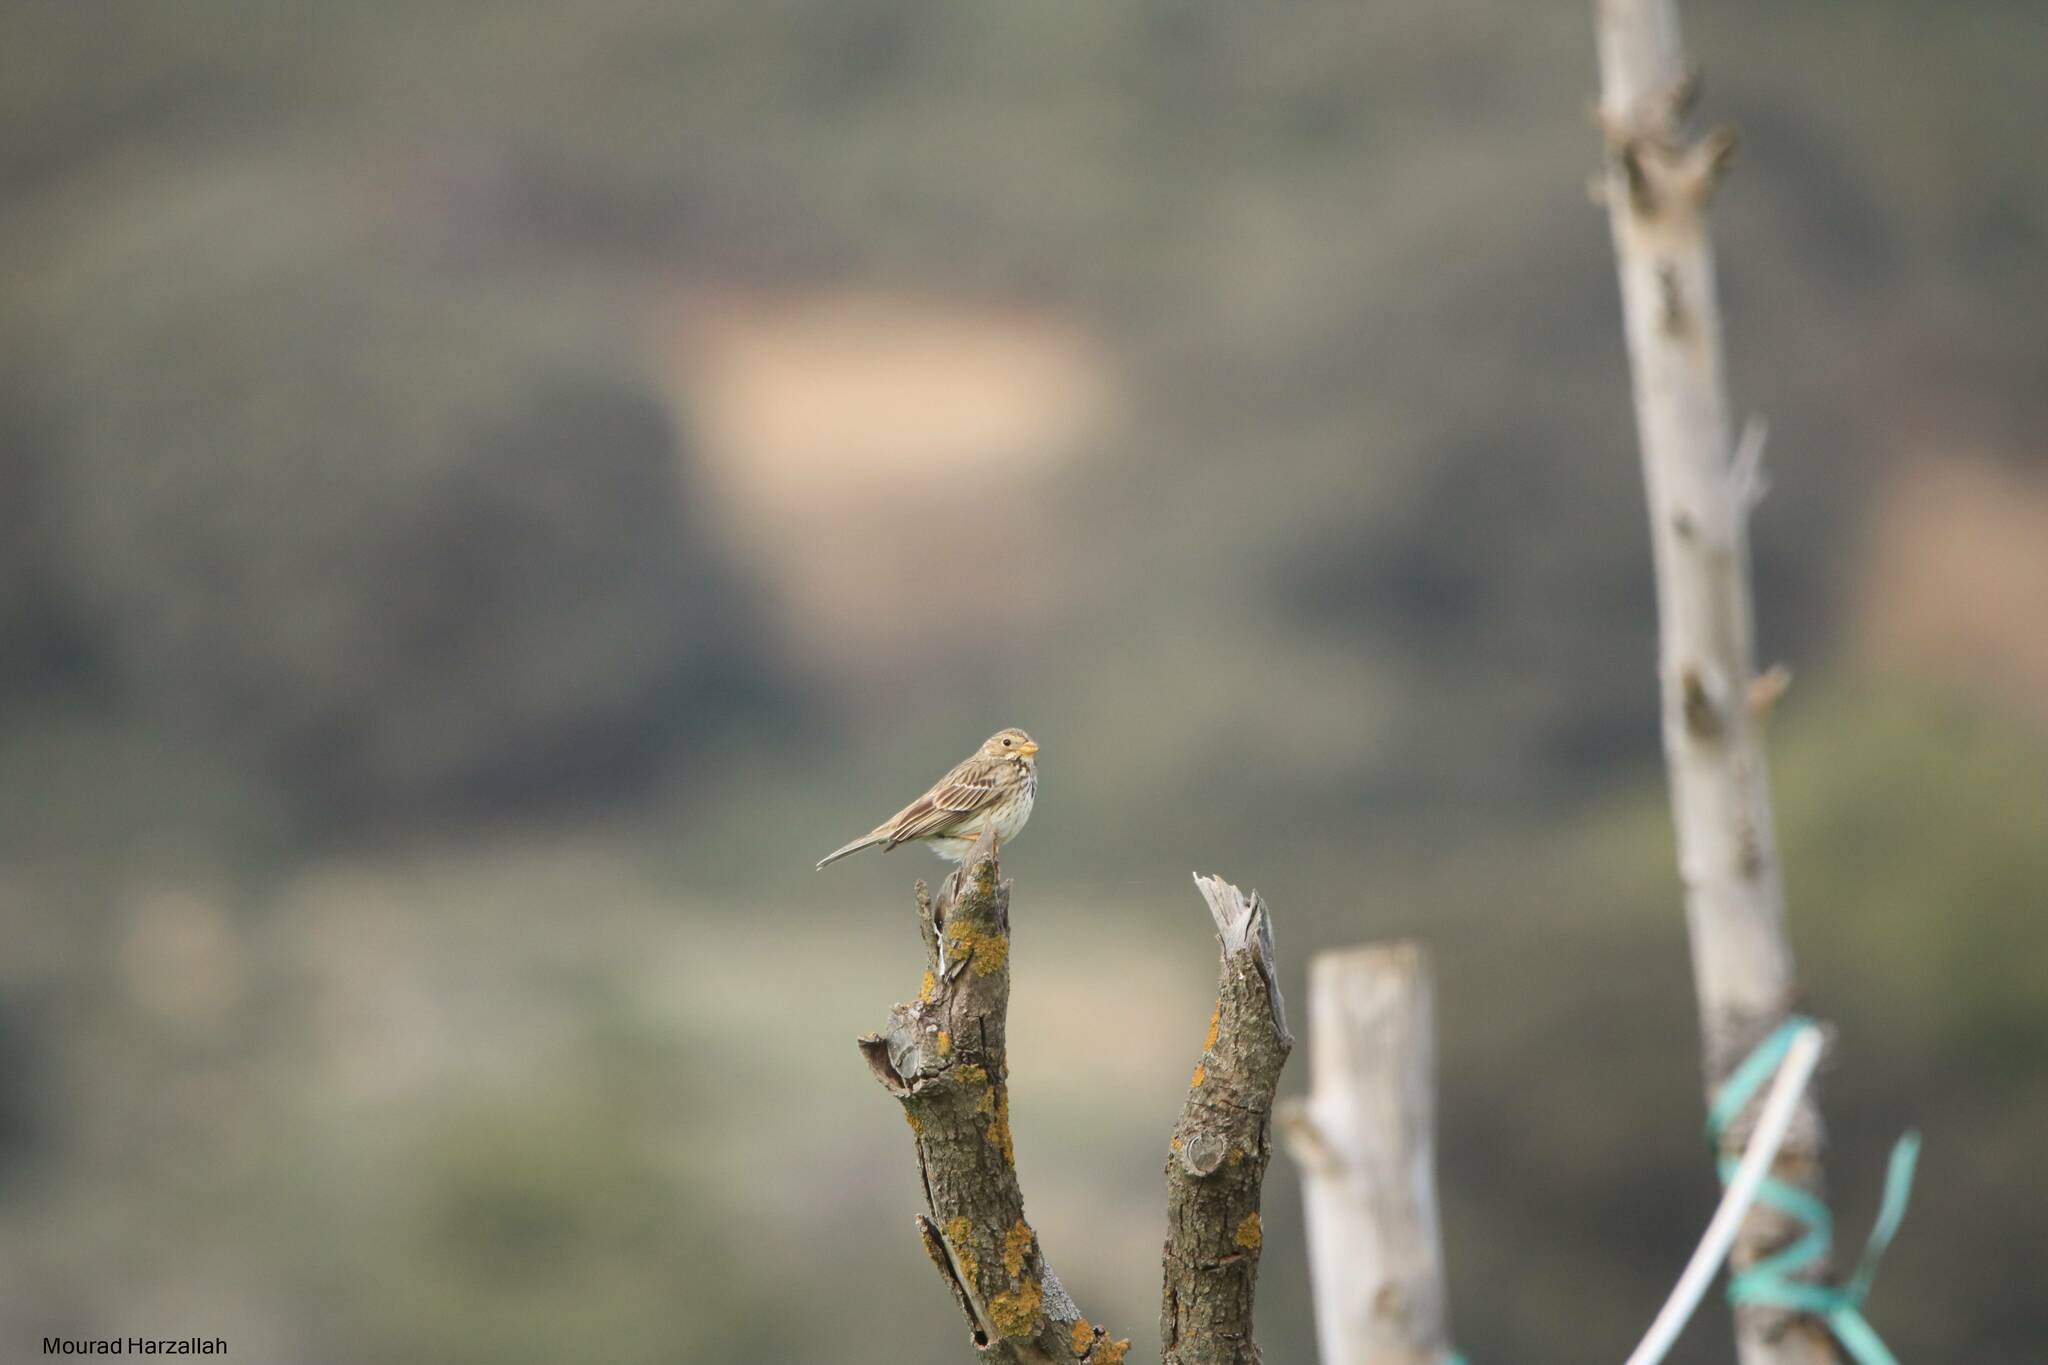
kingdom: Animalia
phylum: Chordata
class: Aves
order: Passeriformes
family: Emberizidae
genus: Emberiza
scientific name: Emberiza calandra
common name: Corn bunting
